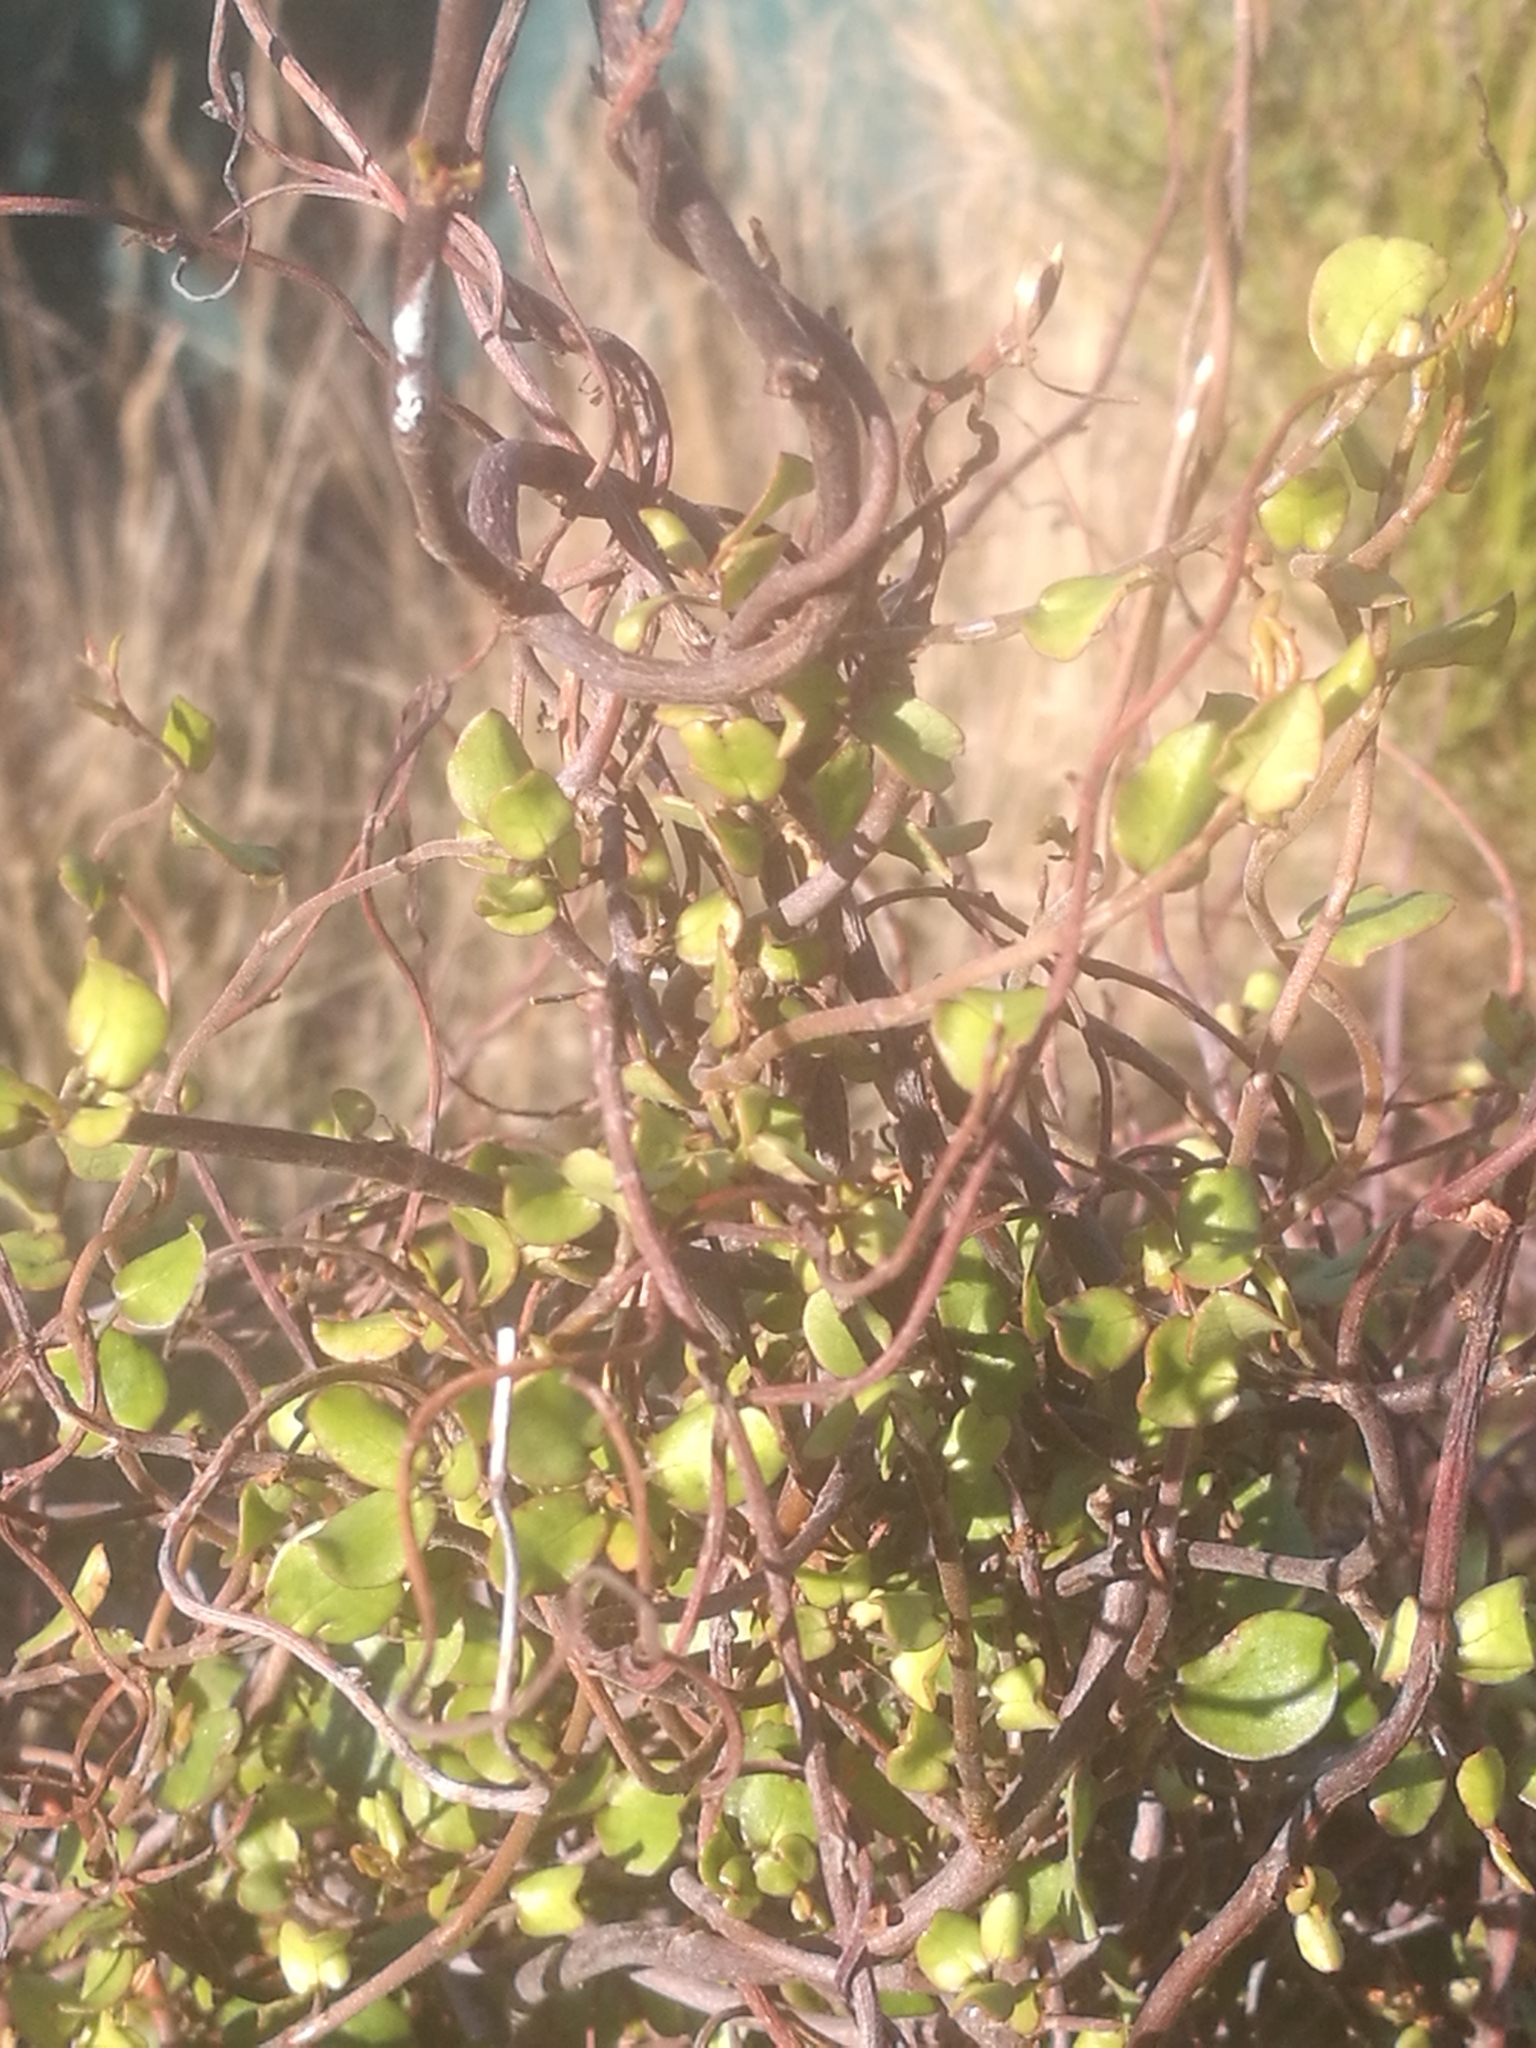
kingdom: Plantae
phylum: Tracheophyta
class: Magnoliopsida
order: Caryophyllales
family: Polygonaceae
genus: Muehlenbeckia
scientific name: Muehlenbeckia complexa
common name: Wireplant
